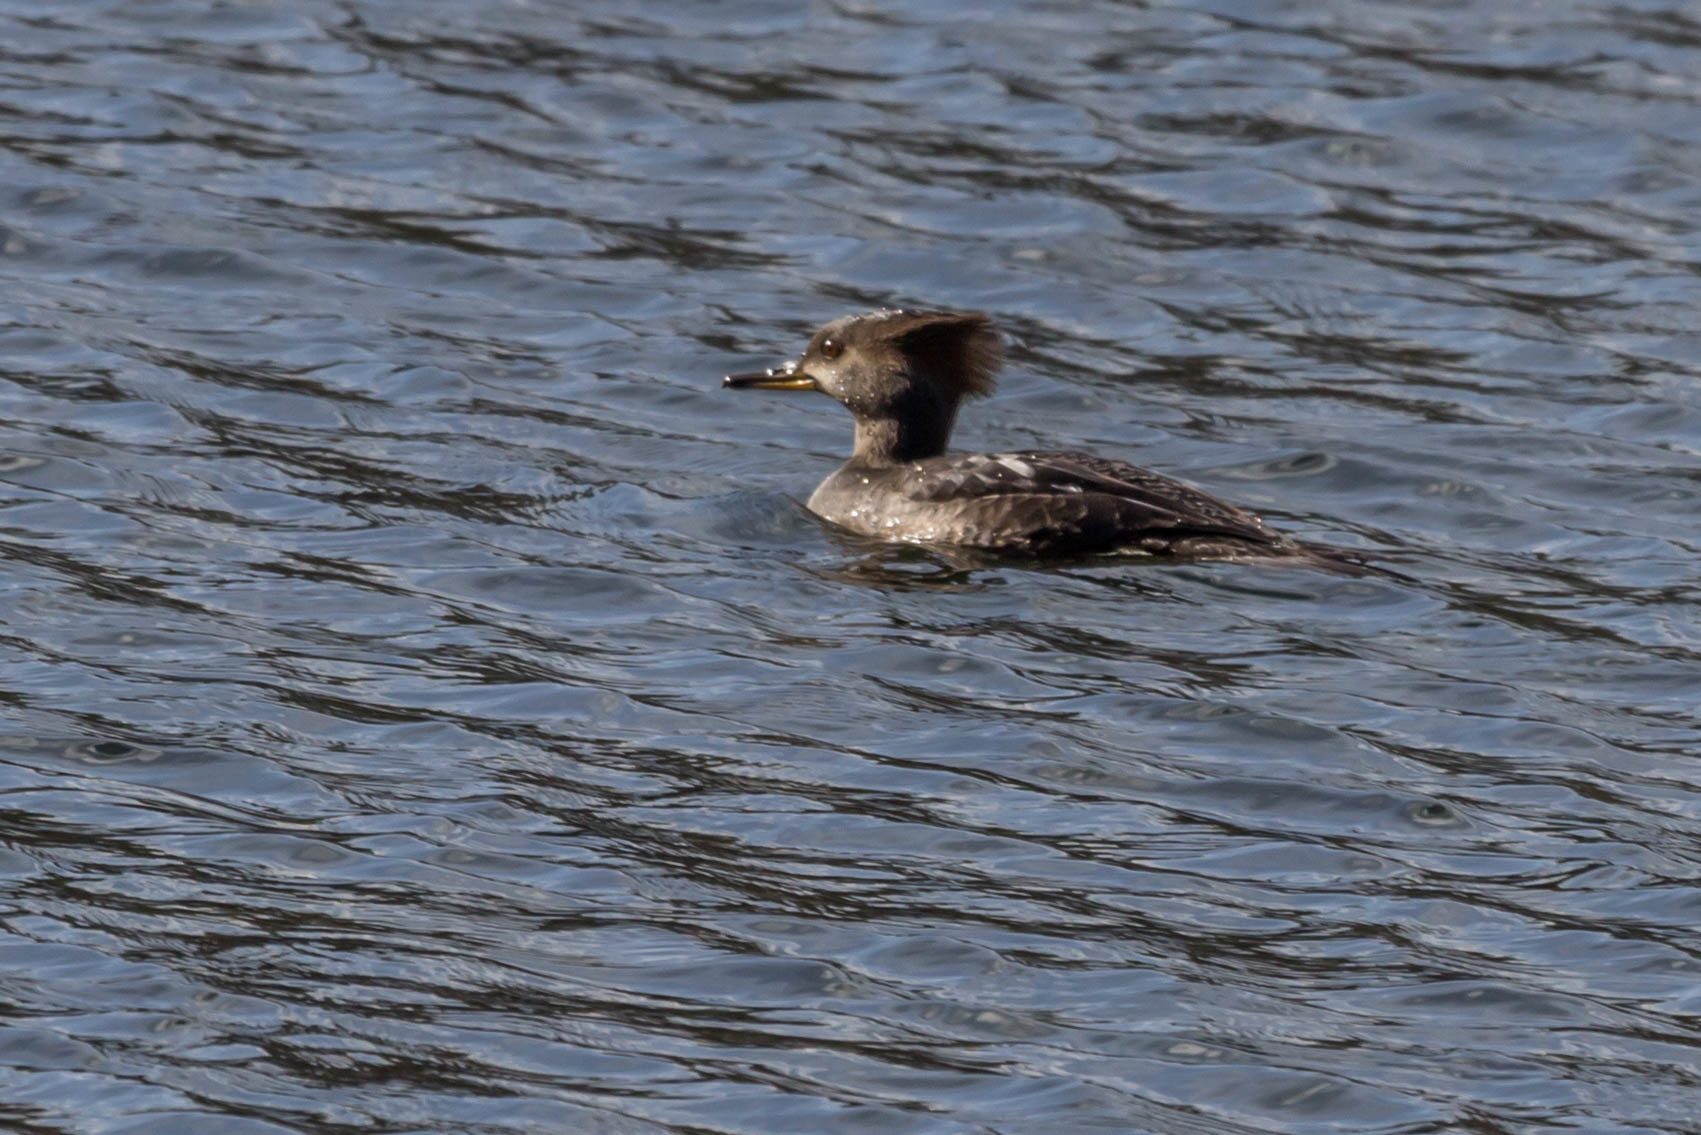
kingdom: Animalia
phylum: Chordata
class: Aves
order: Anseriformes
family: Anatidae
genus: Lophodytes
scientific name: Lophodytes cucullatus
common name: Hooded merganser
